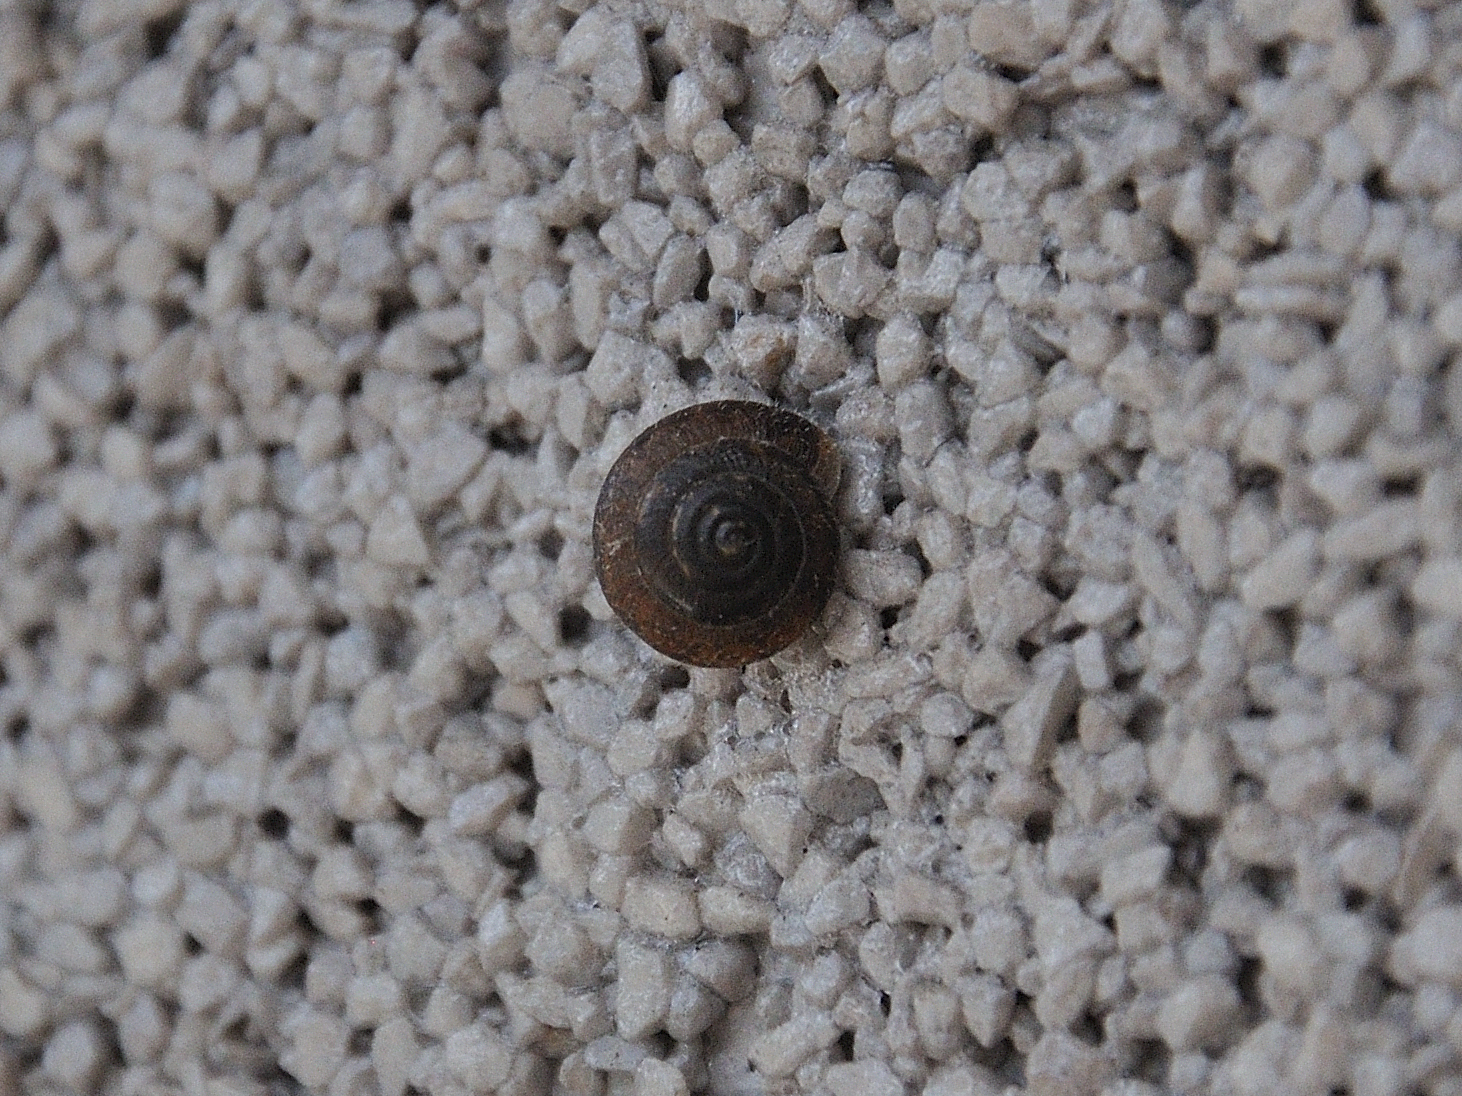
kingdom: Animalia
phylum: Mollusca
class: Gastropoda
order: Stylommatophora
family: Hygromiidae
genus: Trochulus
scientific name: Trochulus hispidus
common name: Hairy snail
